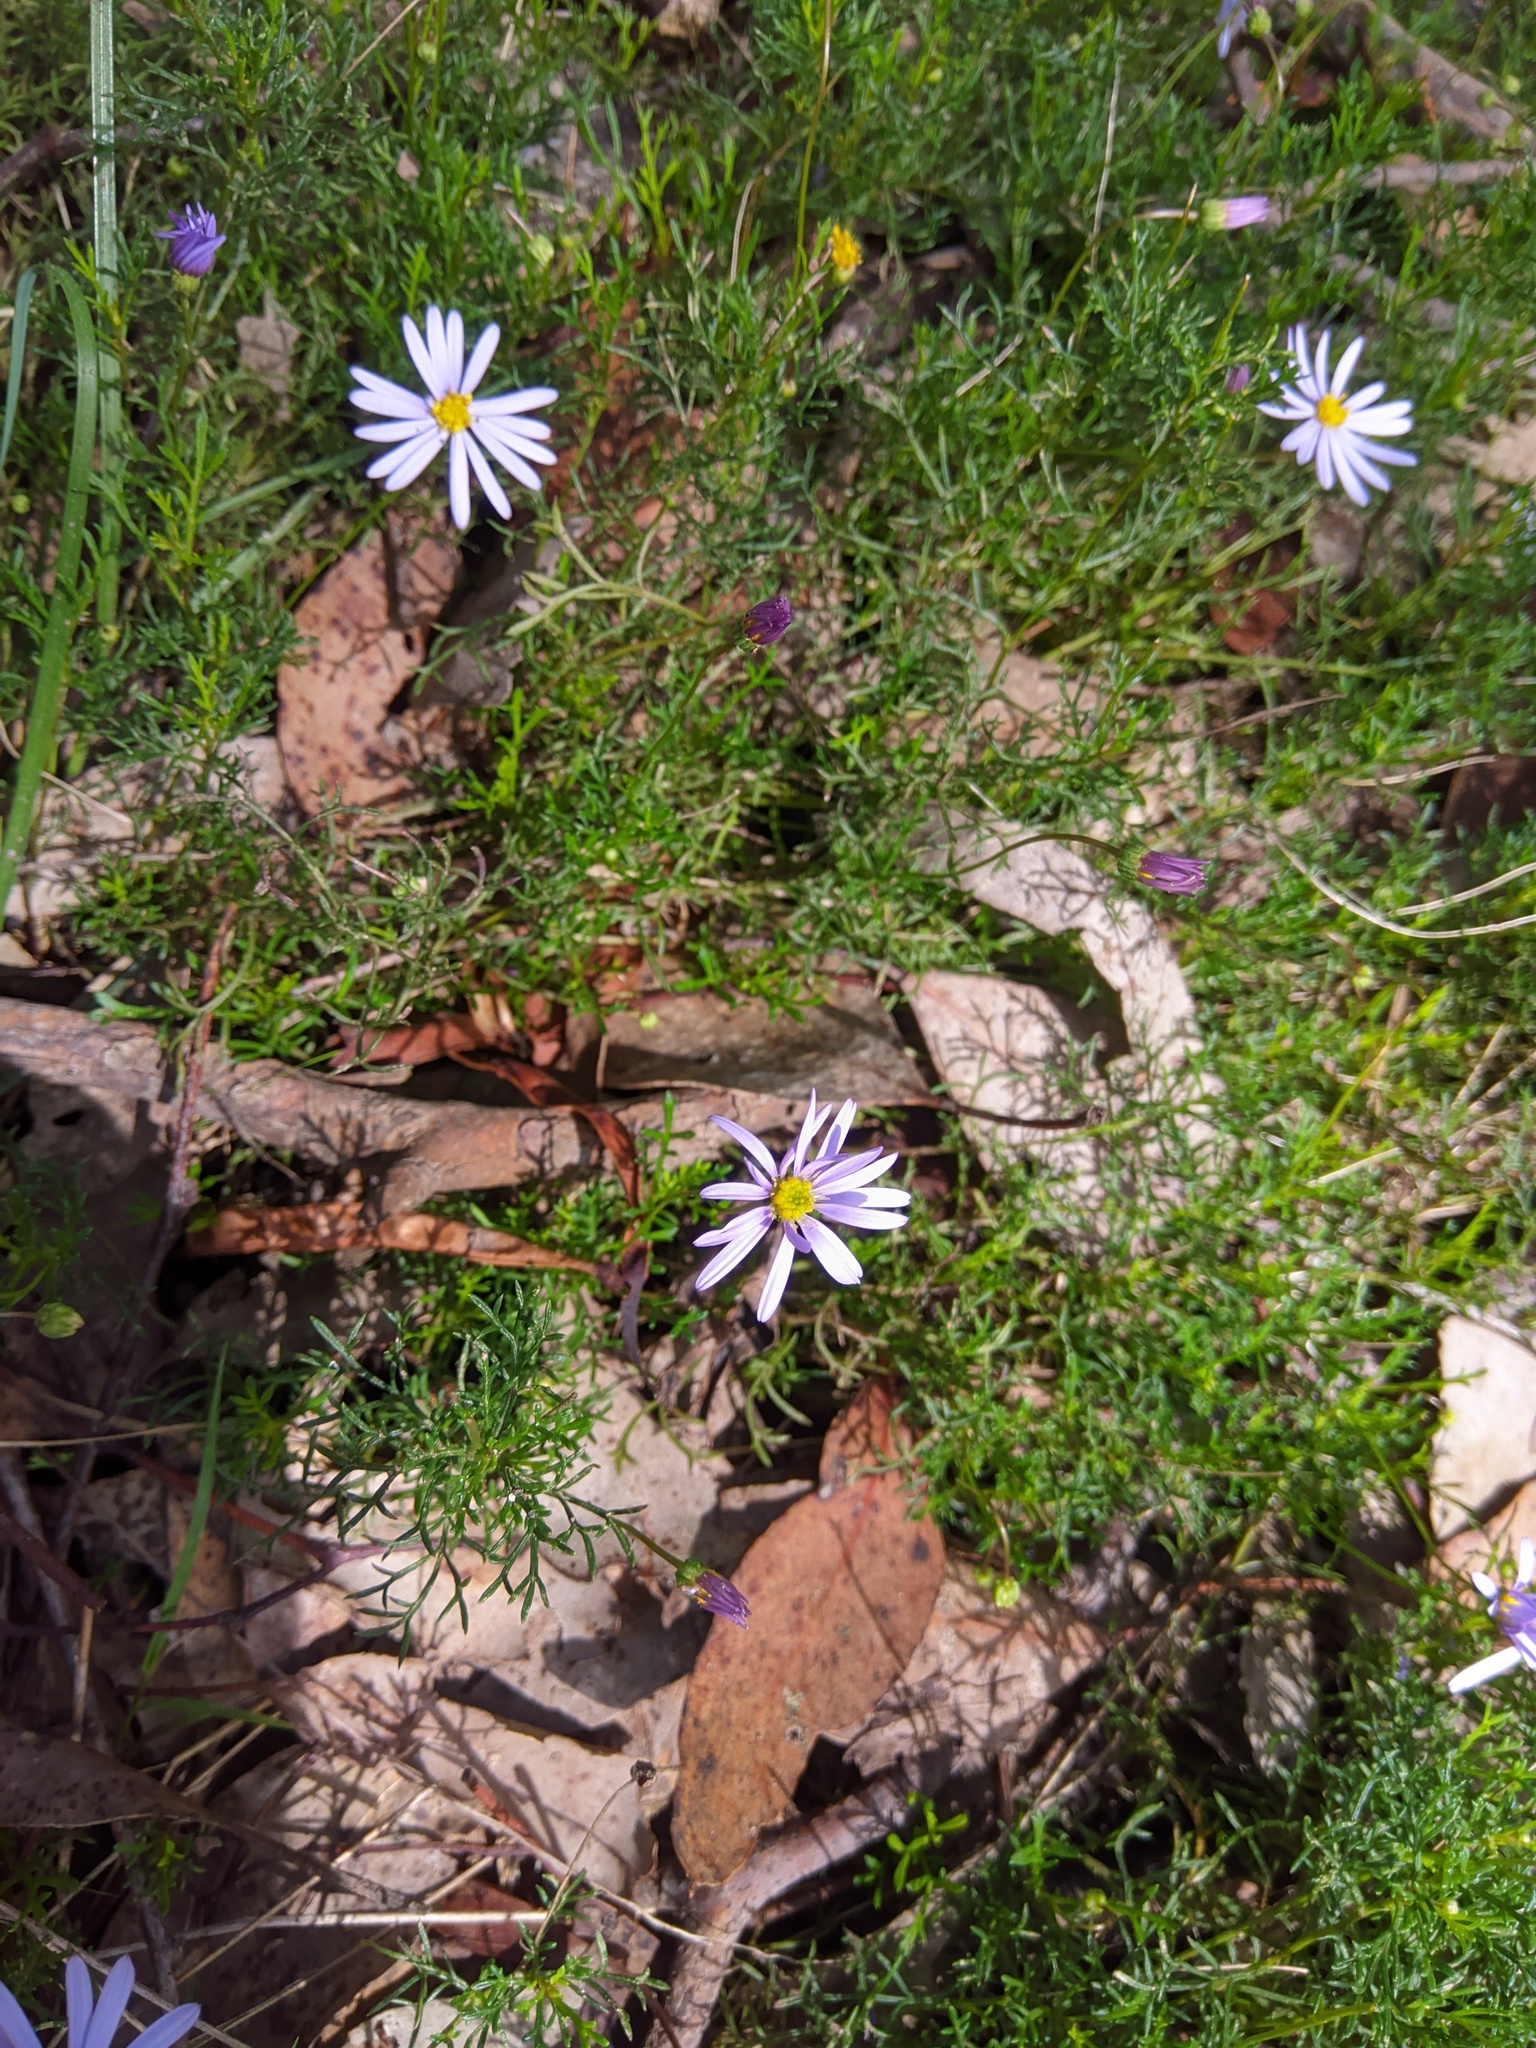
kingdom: Plantae
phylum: Tracheophyta
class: Magnoliopsida
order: Asterales
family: Asteraceae
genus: Brachyscome
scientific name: Brachyscome multifida
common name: Cut-leaf daisy
